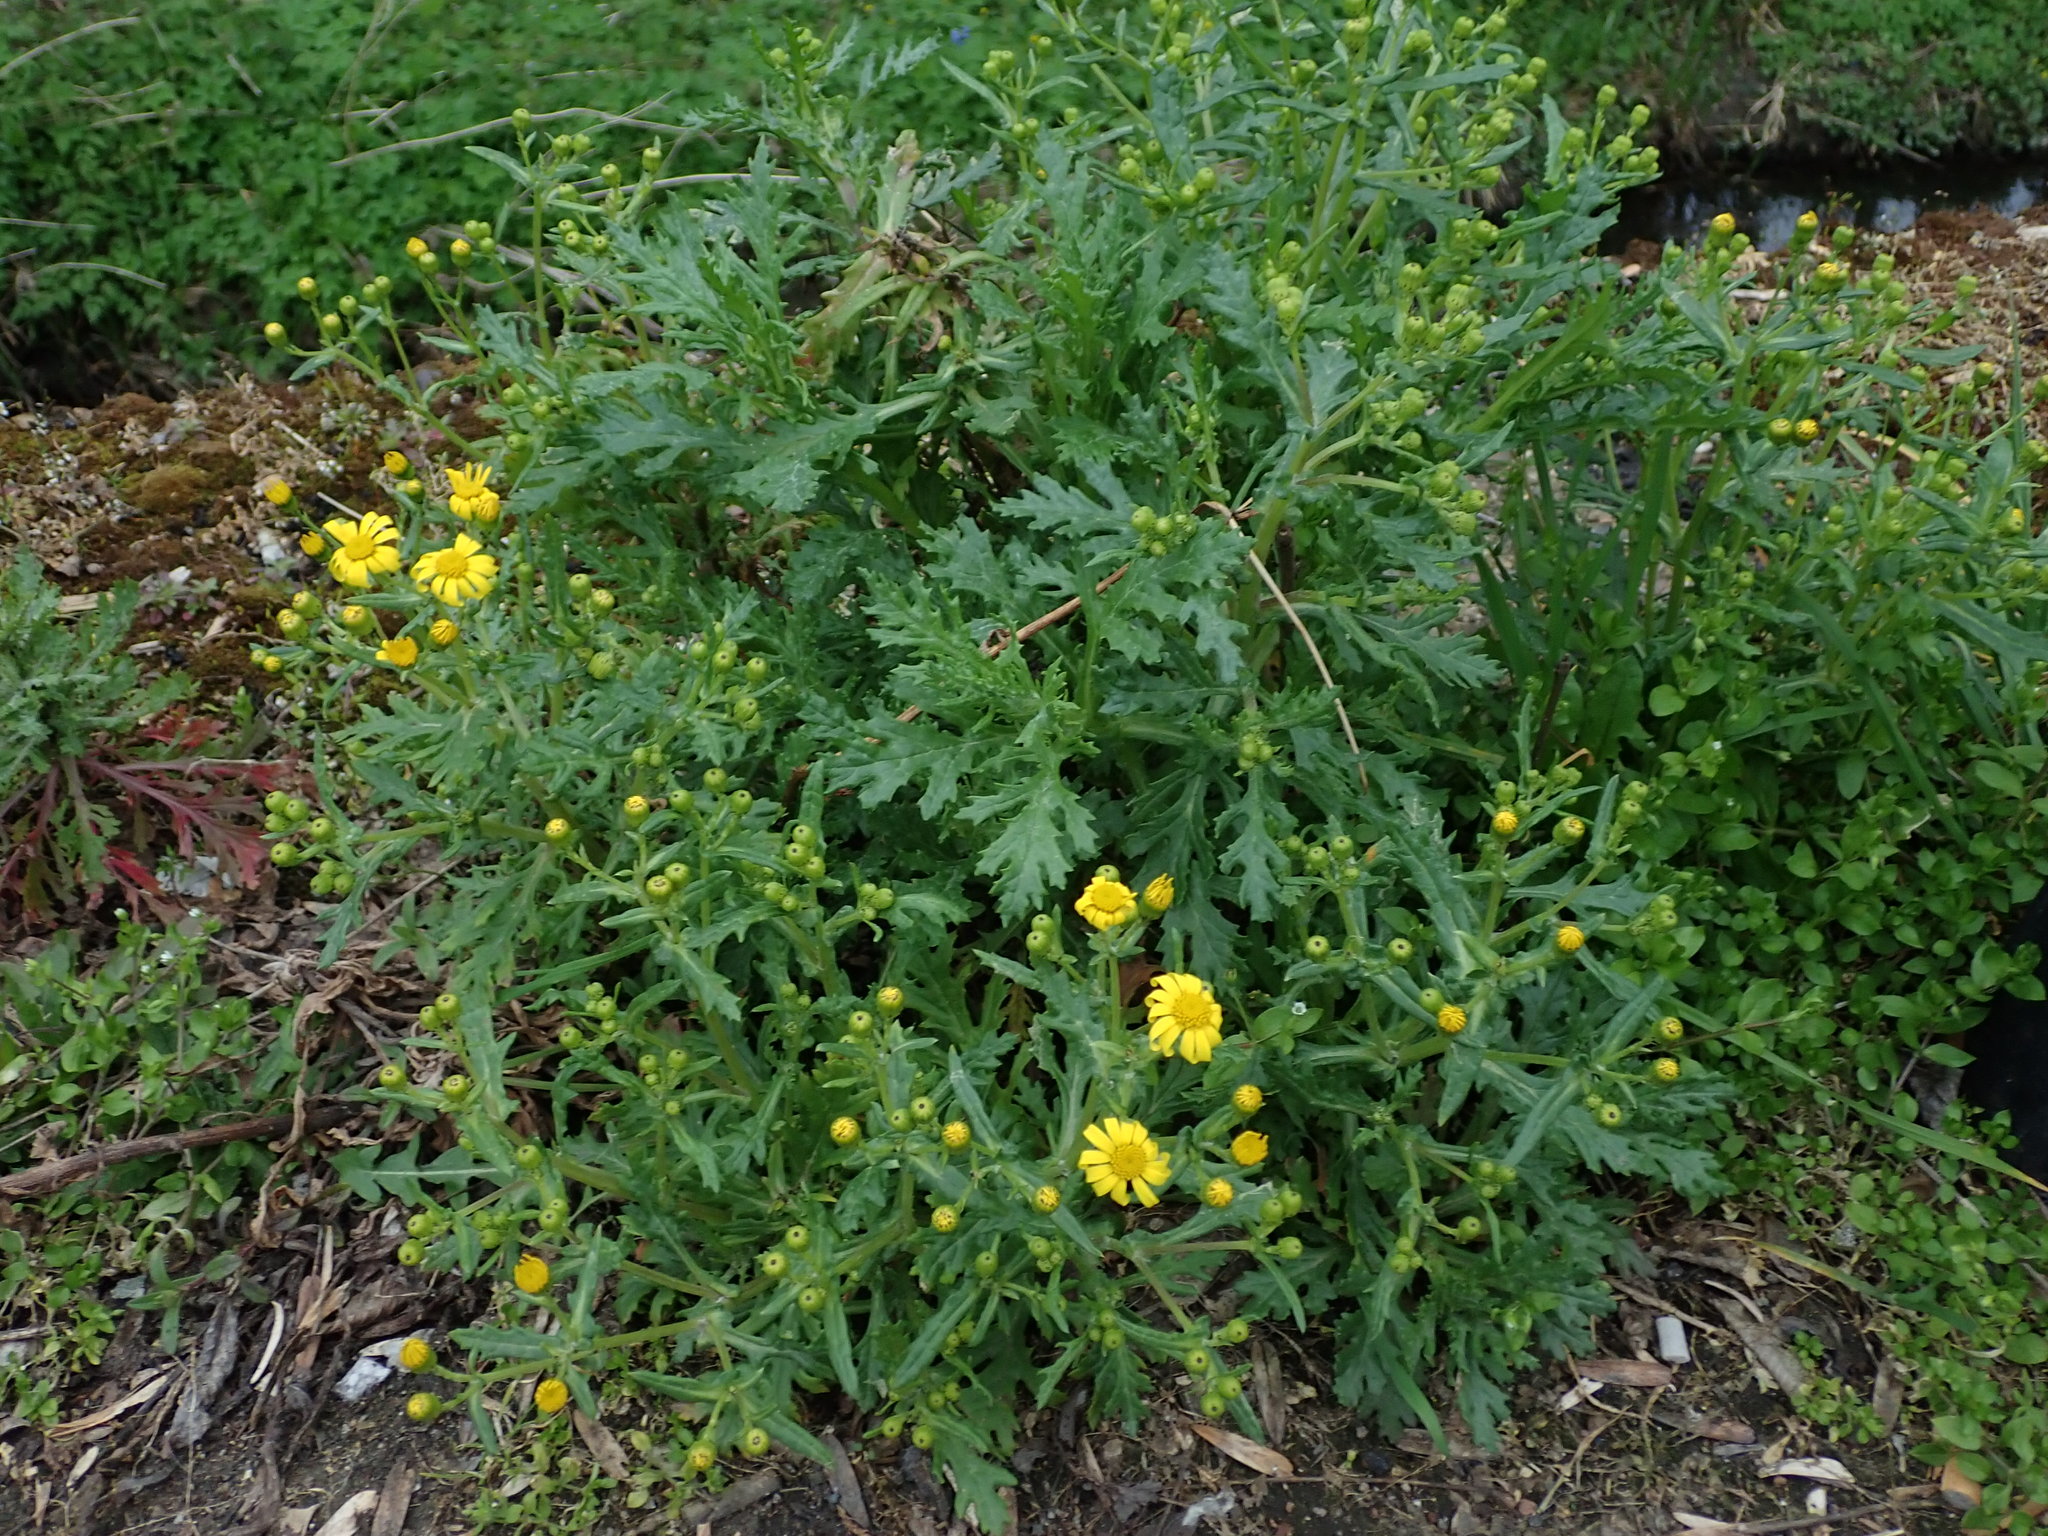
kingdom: Plantae
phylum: Tracheophyta
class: Magnoliopsida
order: Asterales
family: Asteraceae
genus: Senecio
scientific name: Senecio squalidus
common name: Oxford ragwort
